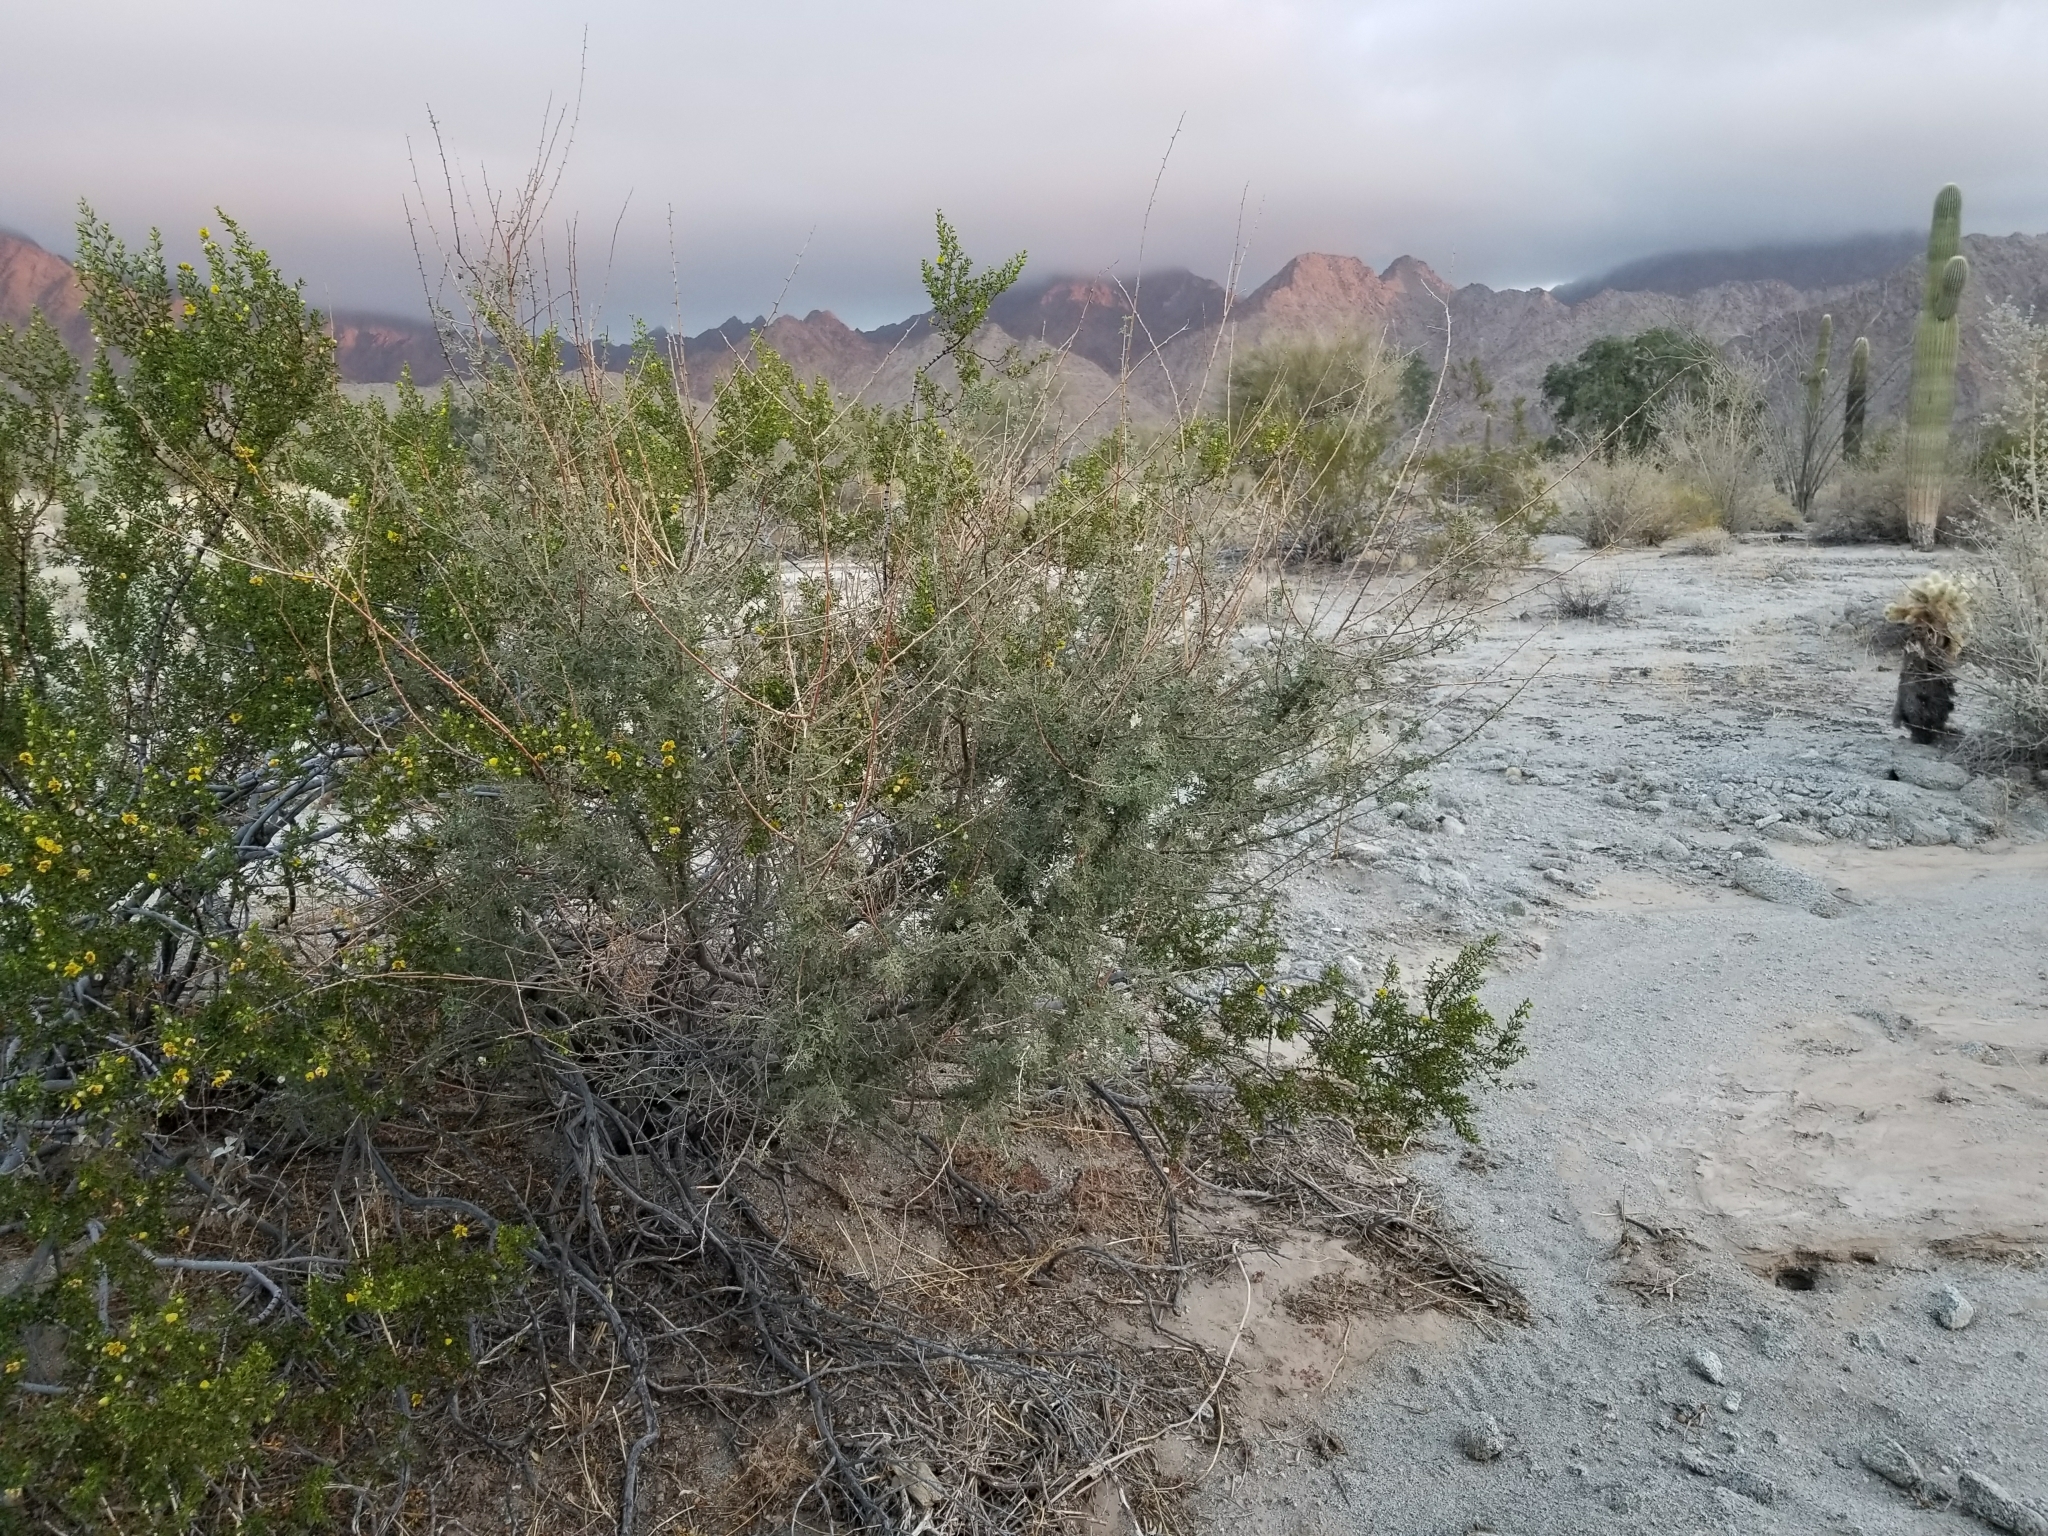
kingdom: Plantae
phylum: Tracheophyta
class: Magnoliopsida
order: Fabales
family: Fabaceae
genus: Senegalia
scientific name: Senegalia greggii
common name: Texas-mimosa
